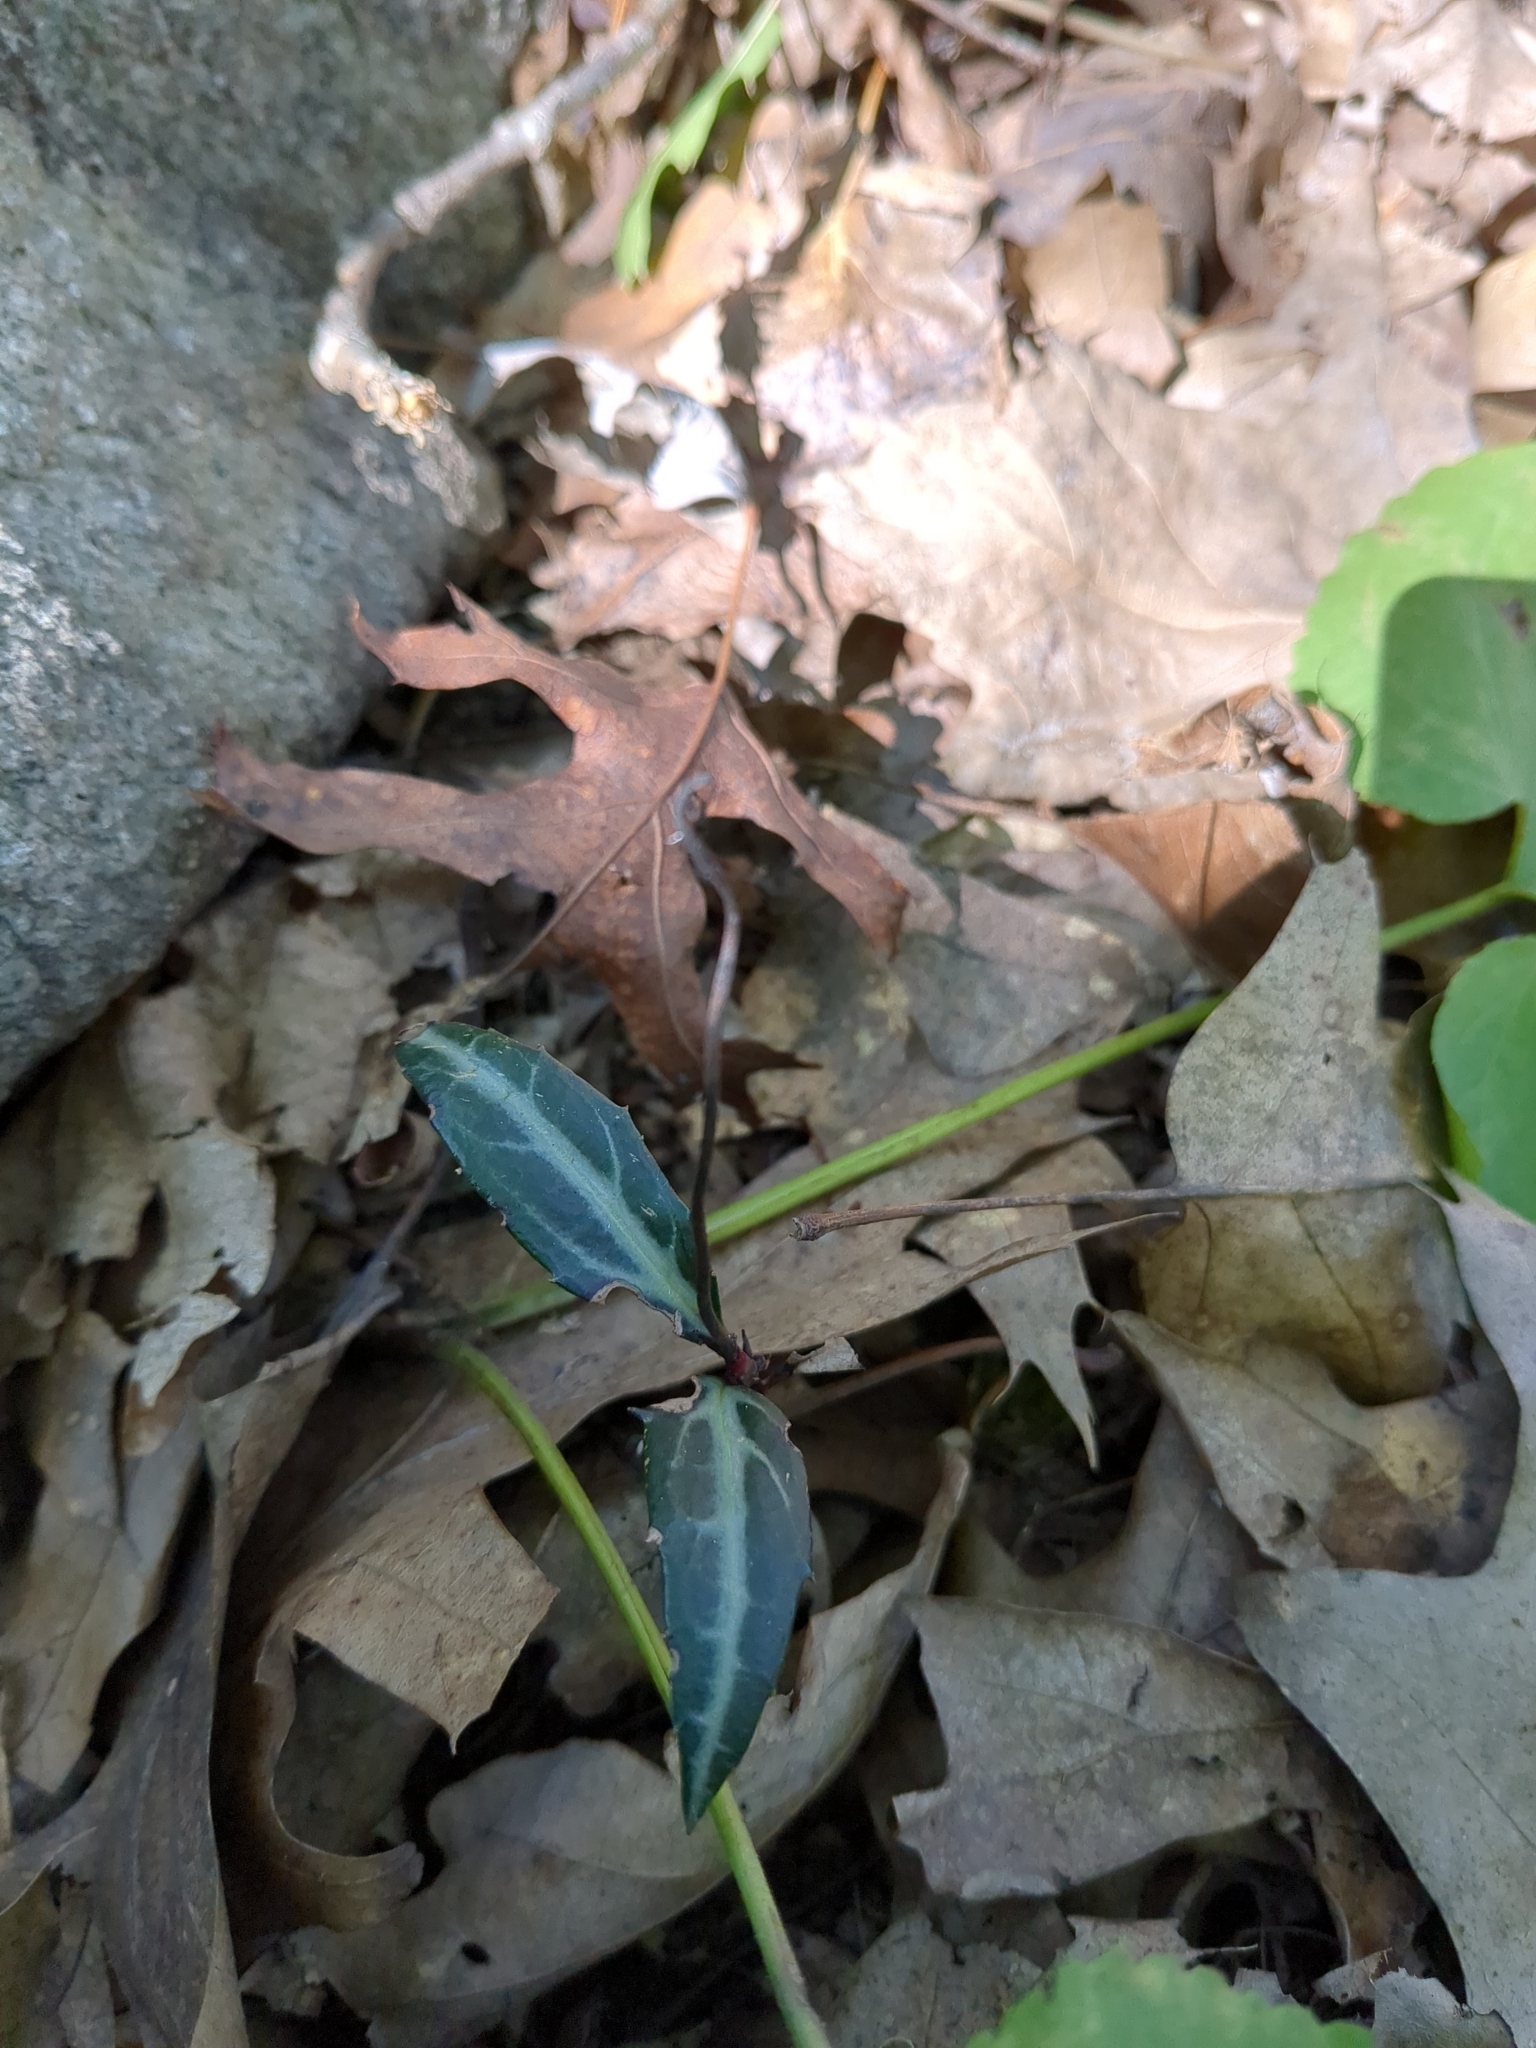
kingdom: Plantae
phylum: Tracheophyta
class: Magnoliopsida
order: Ericales
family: Ericaceae
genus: Chimaphila
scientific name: Chimaphila maculata
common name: Spotted pipsissewa
